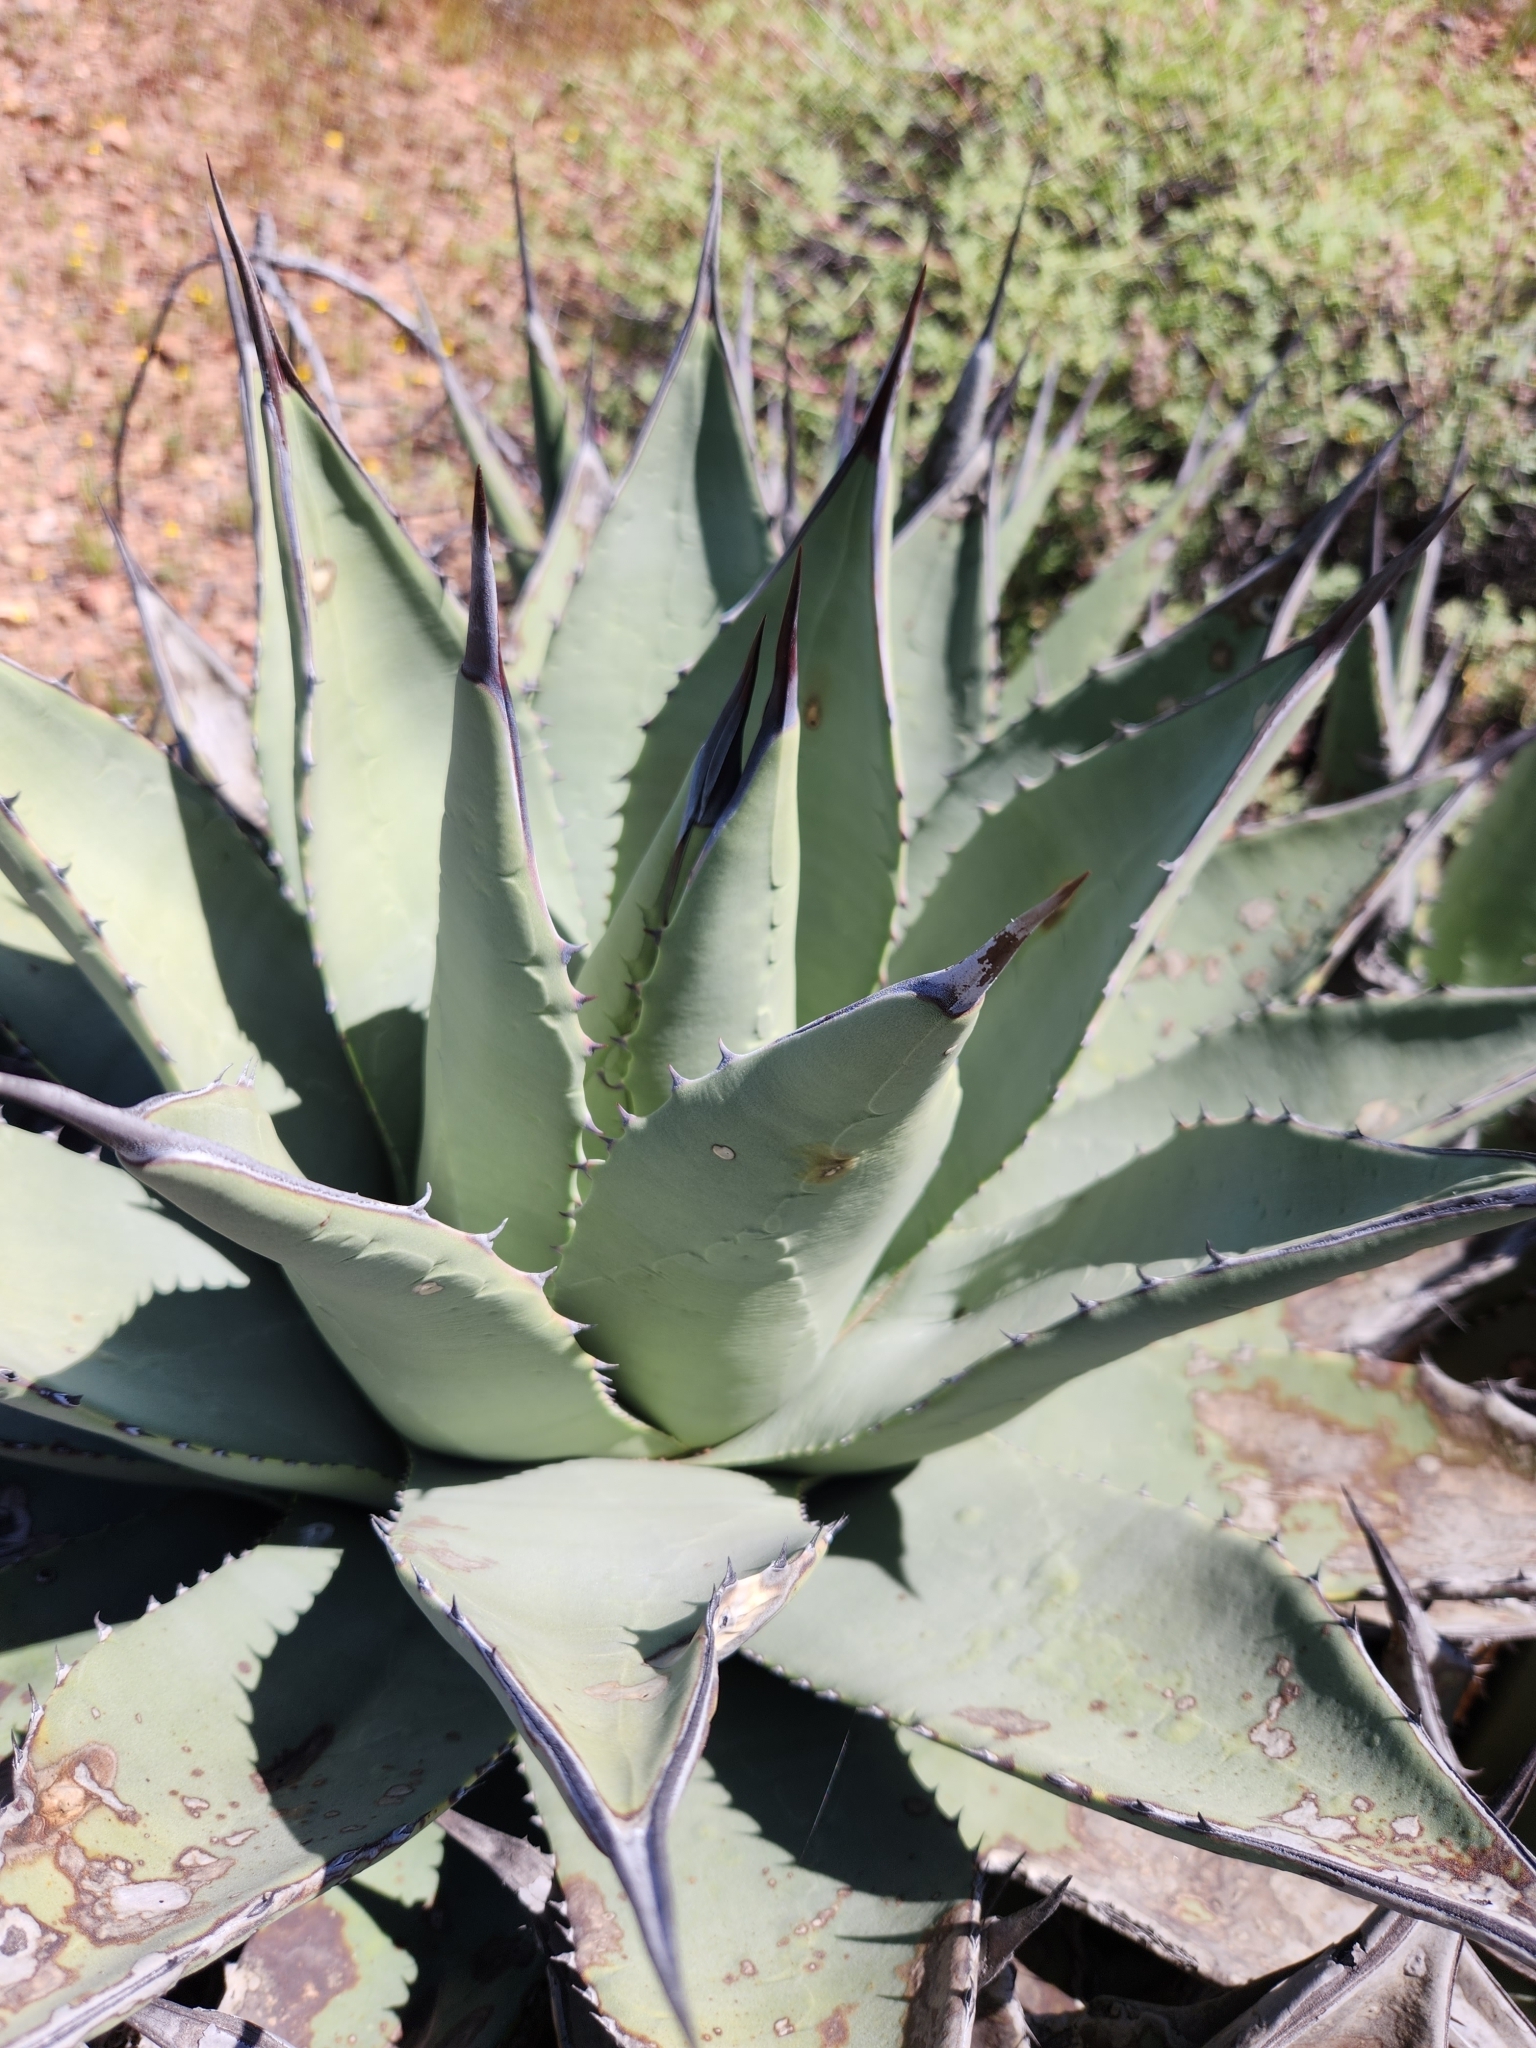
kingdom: Plantae
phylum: Tracheophyta
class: Liliopsida
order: Asparagales
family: Asparagaceae
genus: Agave
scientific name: Agave shawii
